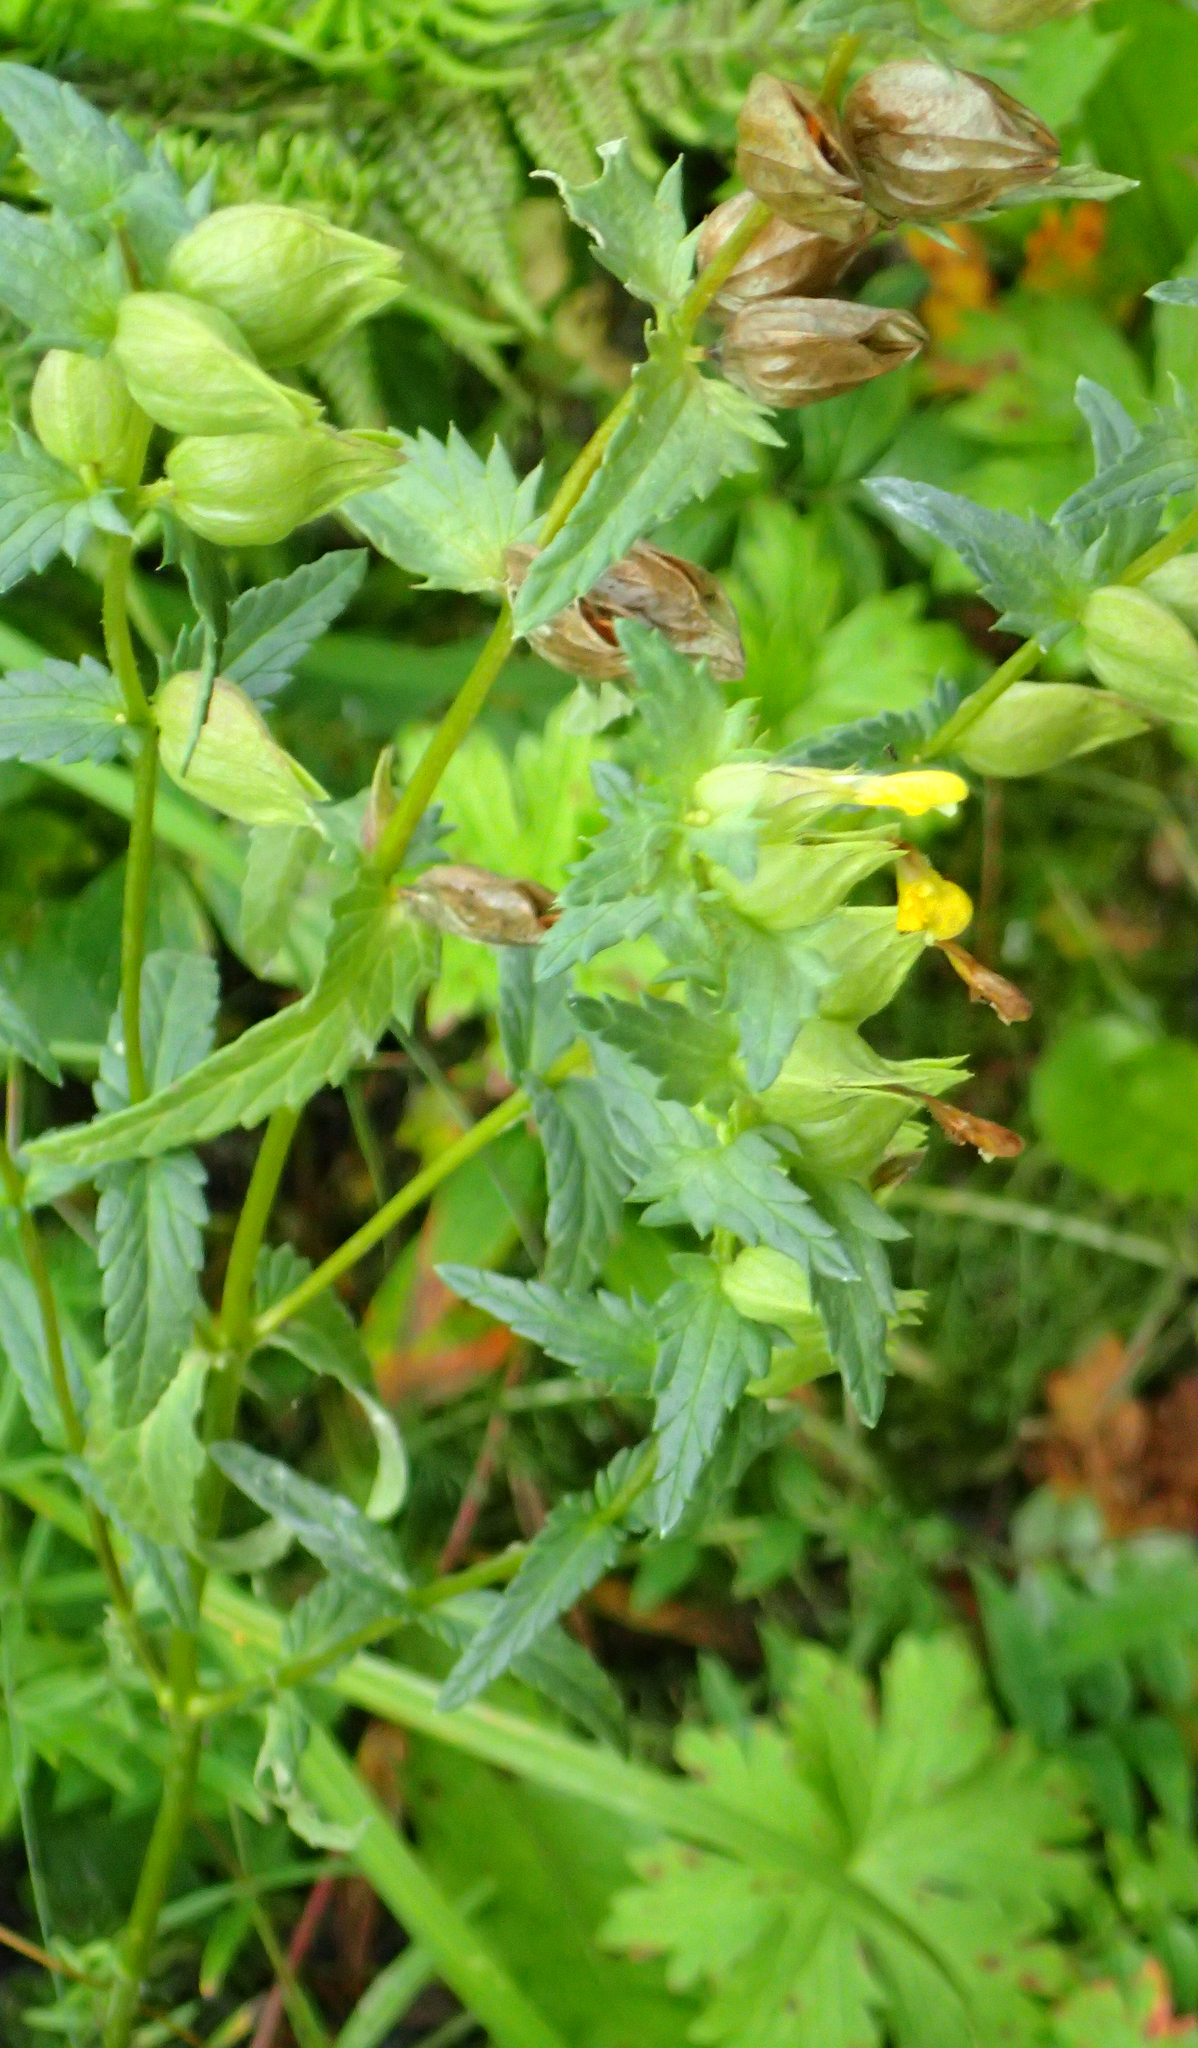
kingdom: Plantae
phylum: Tracheophyta
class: Magnoliopsida
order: Lamiales
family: Orobanchaceae
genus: Rhinanthus
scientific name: Rhinanthus minor
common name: Yellow-rattle
